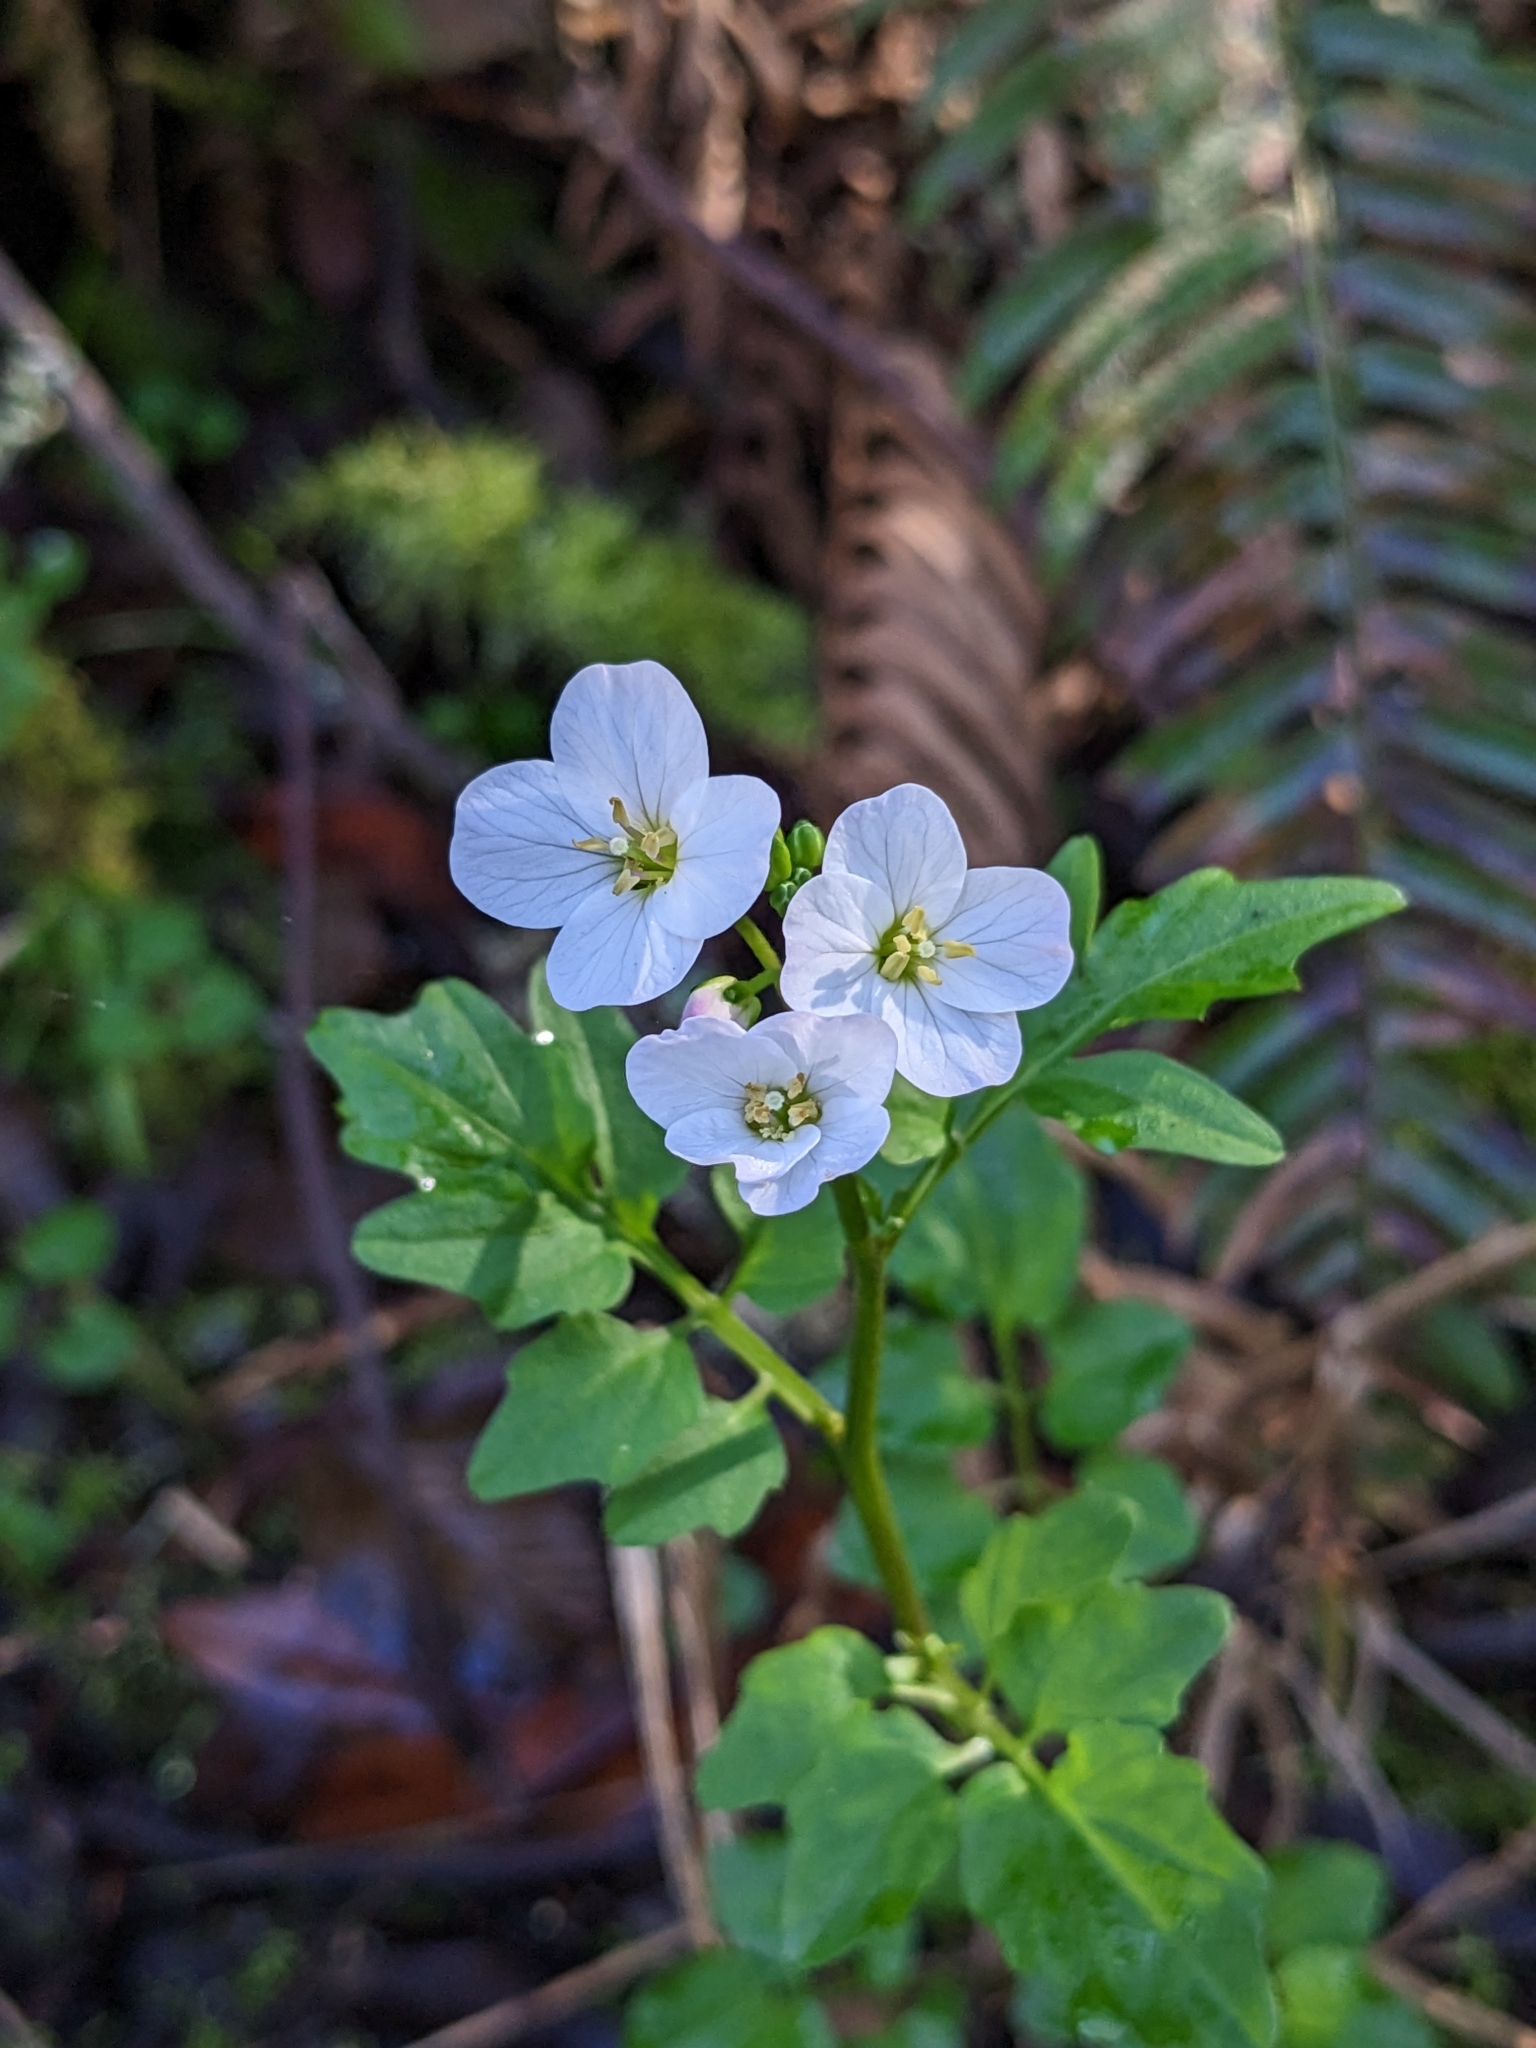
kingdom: Plantae
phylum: Tracheophyta
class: Magnoliopsida
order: Brassicales
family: Brassicaceae
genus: Cardamine
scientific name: Cardamine californica
